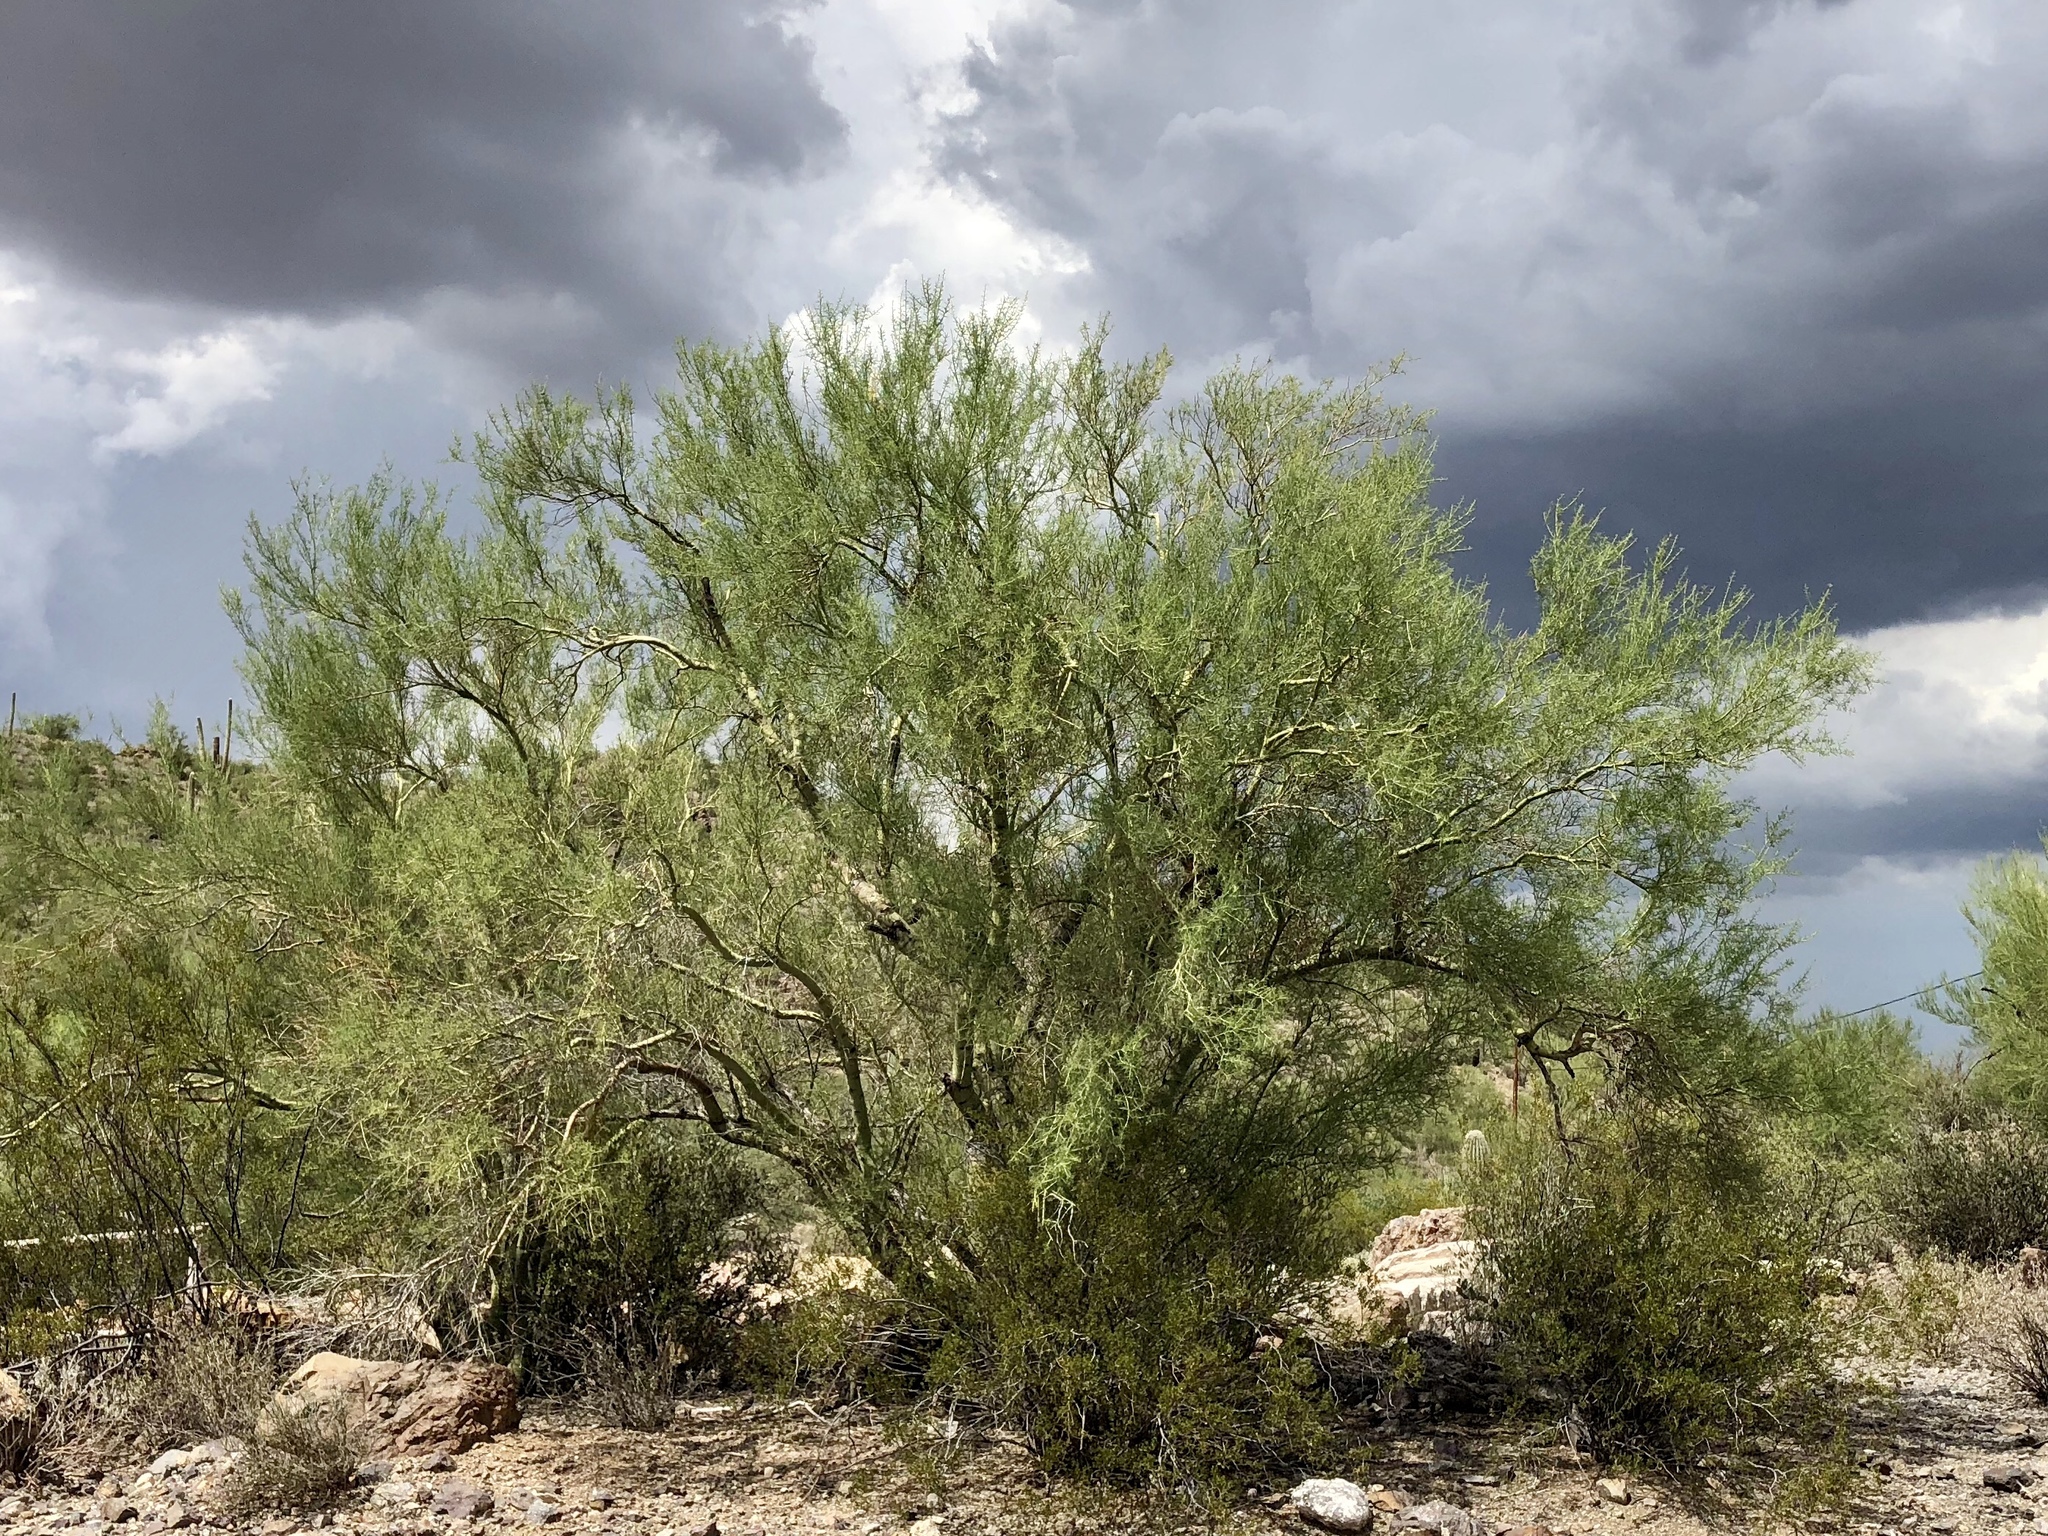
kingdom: Plantae
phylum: Tracheophyta
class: Magnoliopsida
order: Fabales
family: Fabaceae
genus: Parkinsonia
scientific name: Parkinsonia microphylla
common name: Yellow paloverde
